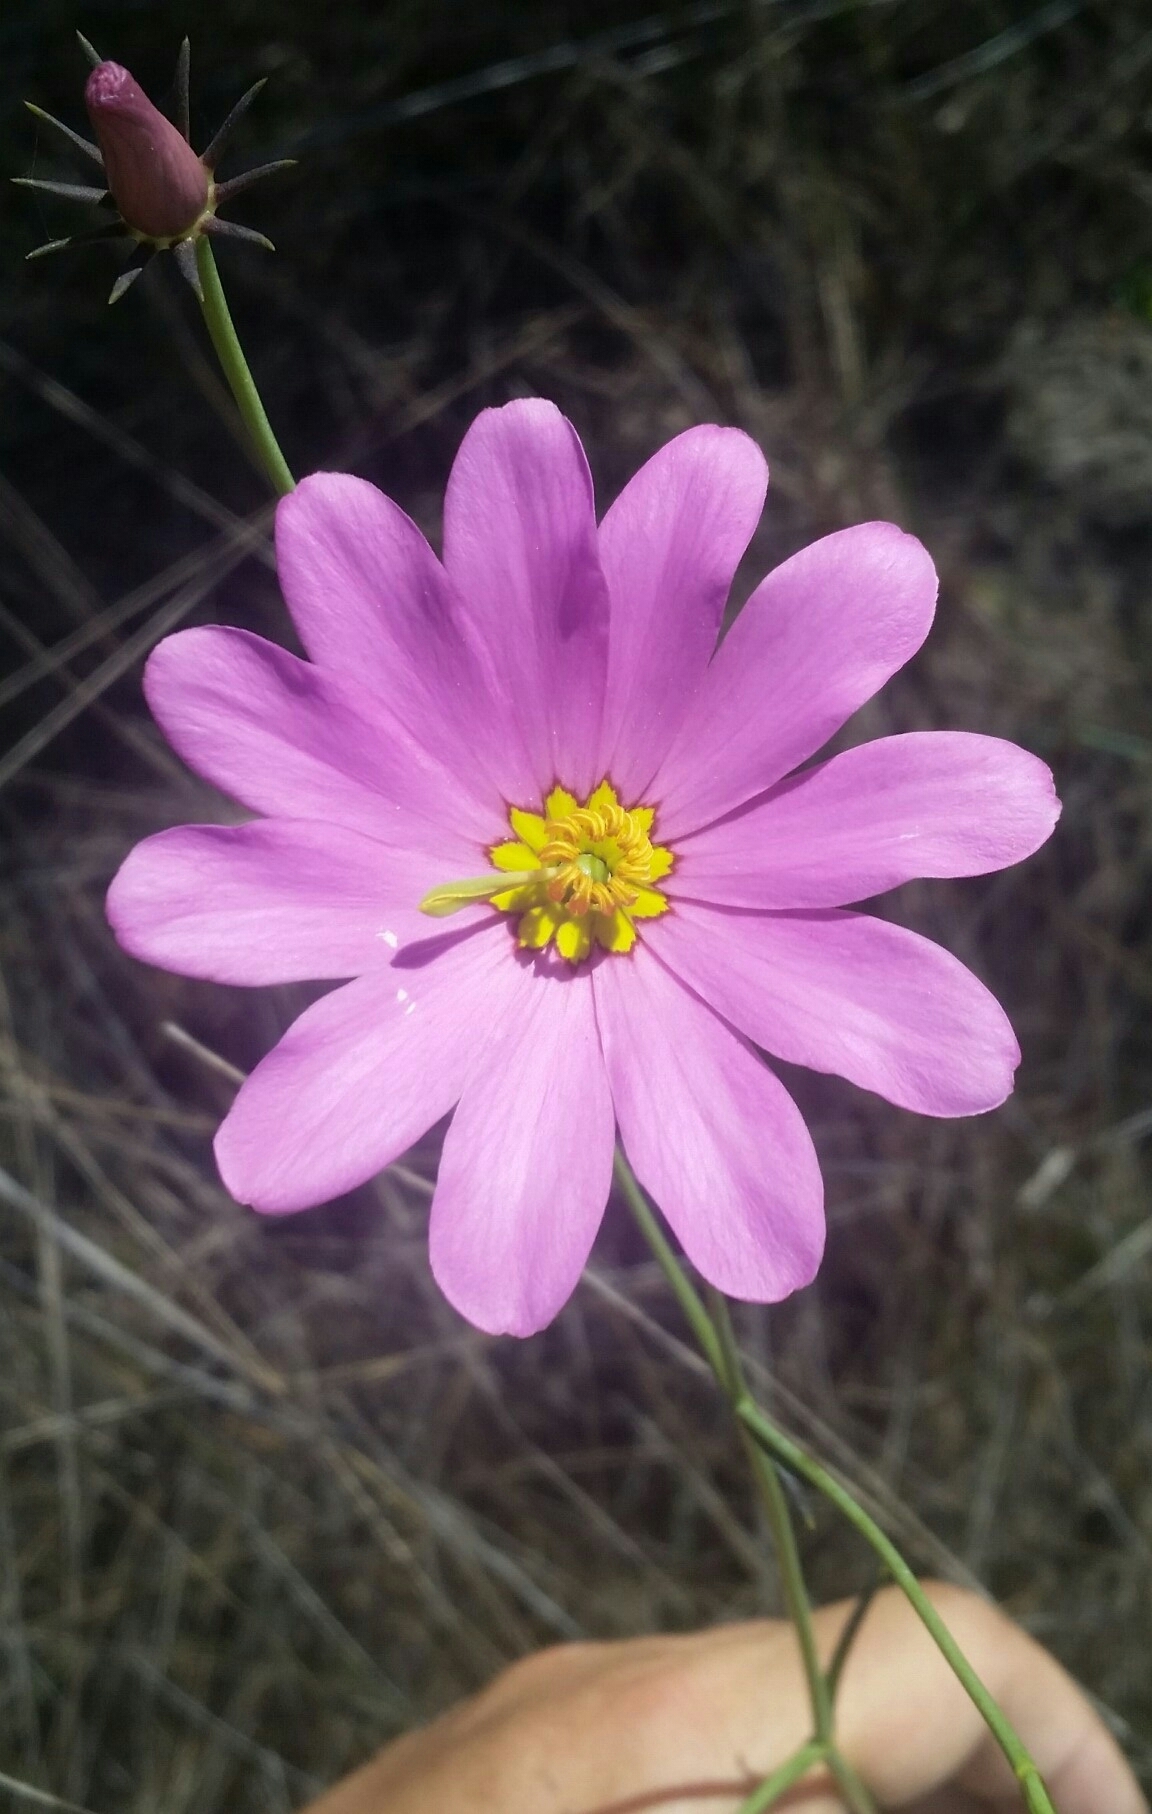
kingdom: Plantae
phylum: Tracheophyta
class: Magnoliopsida
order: Gentianales
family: Gentianaceae
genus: Sabatia
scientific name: Sabatia decandra
